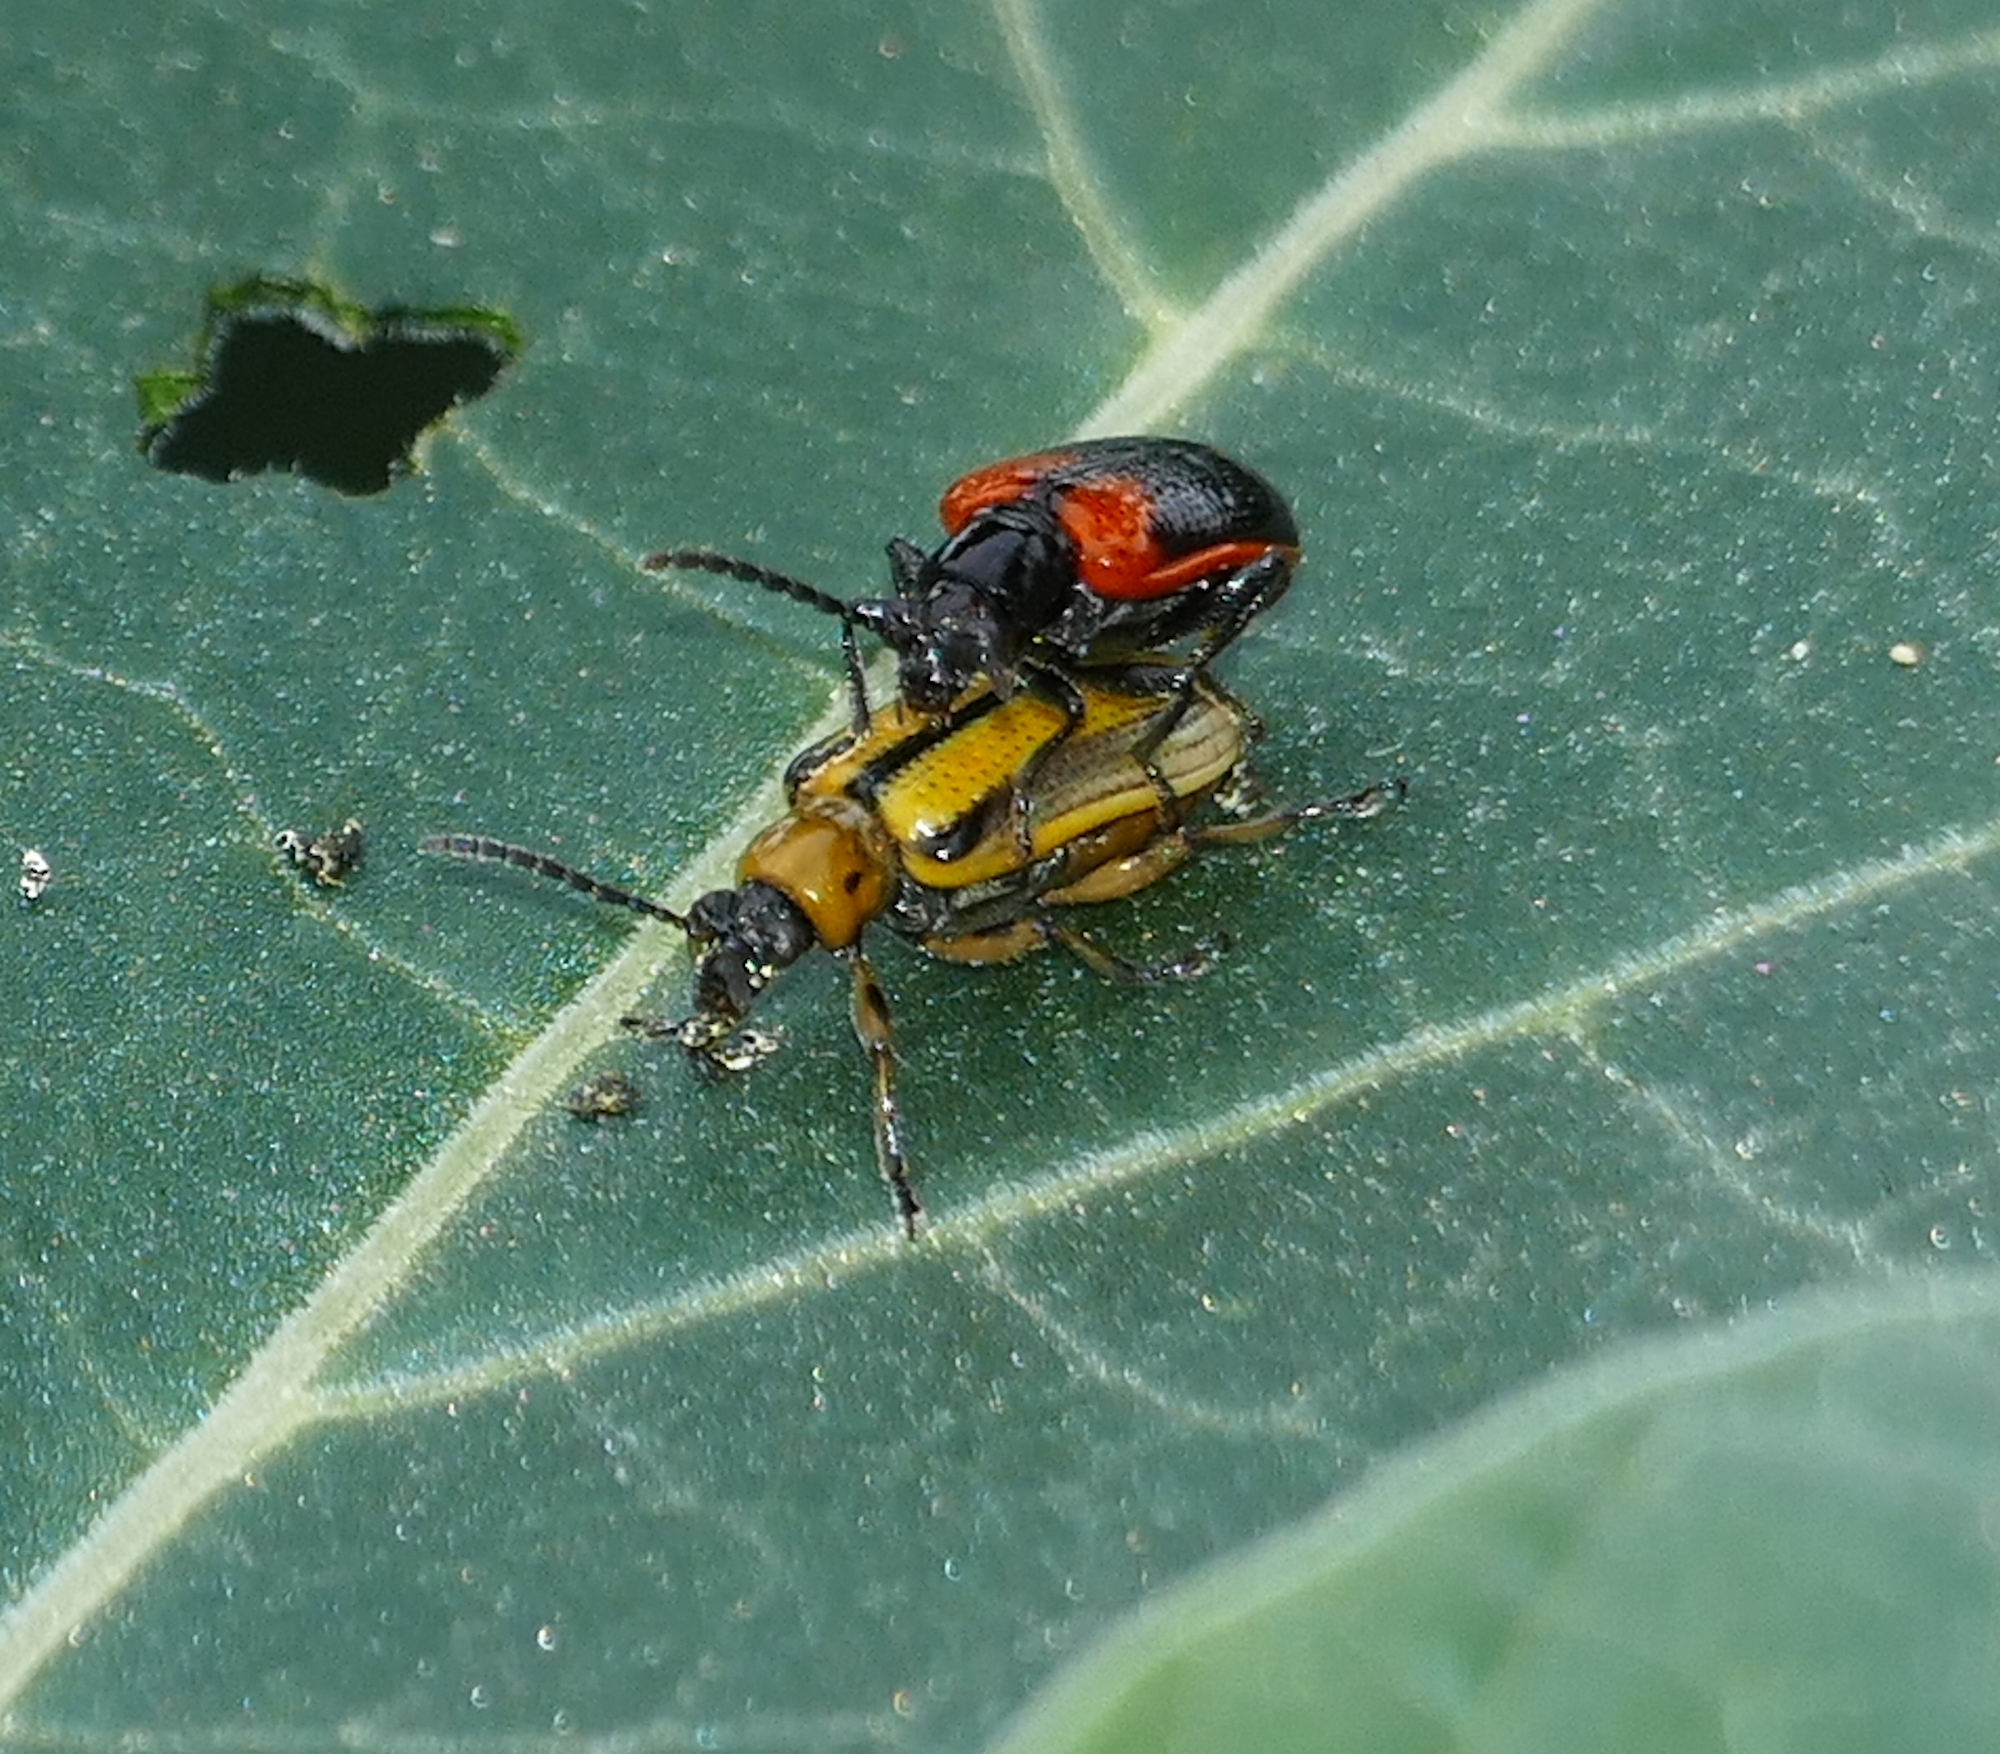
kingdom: Animalia
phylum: Arthropoda
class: Insecta
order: Coleoptera
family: Chrysomelidae
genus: Lema
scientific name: Lema confusa
